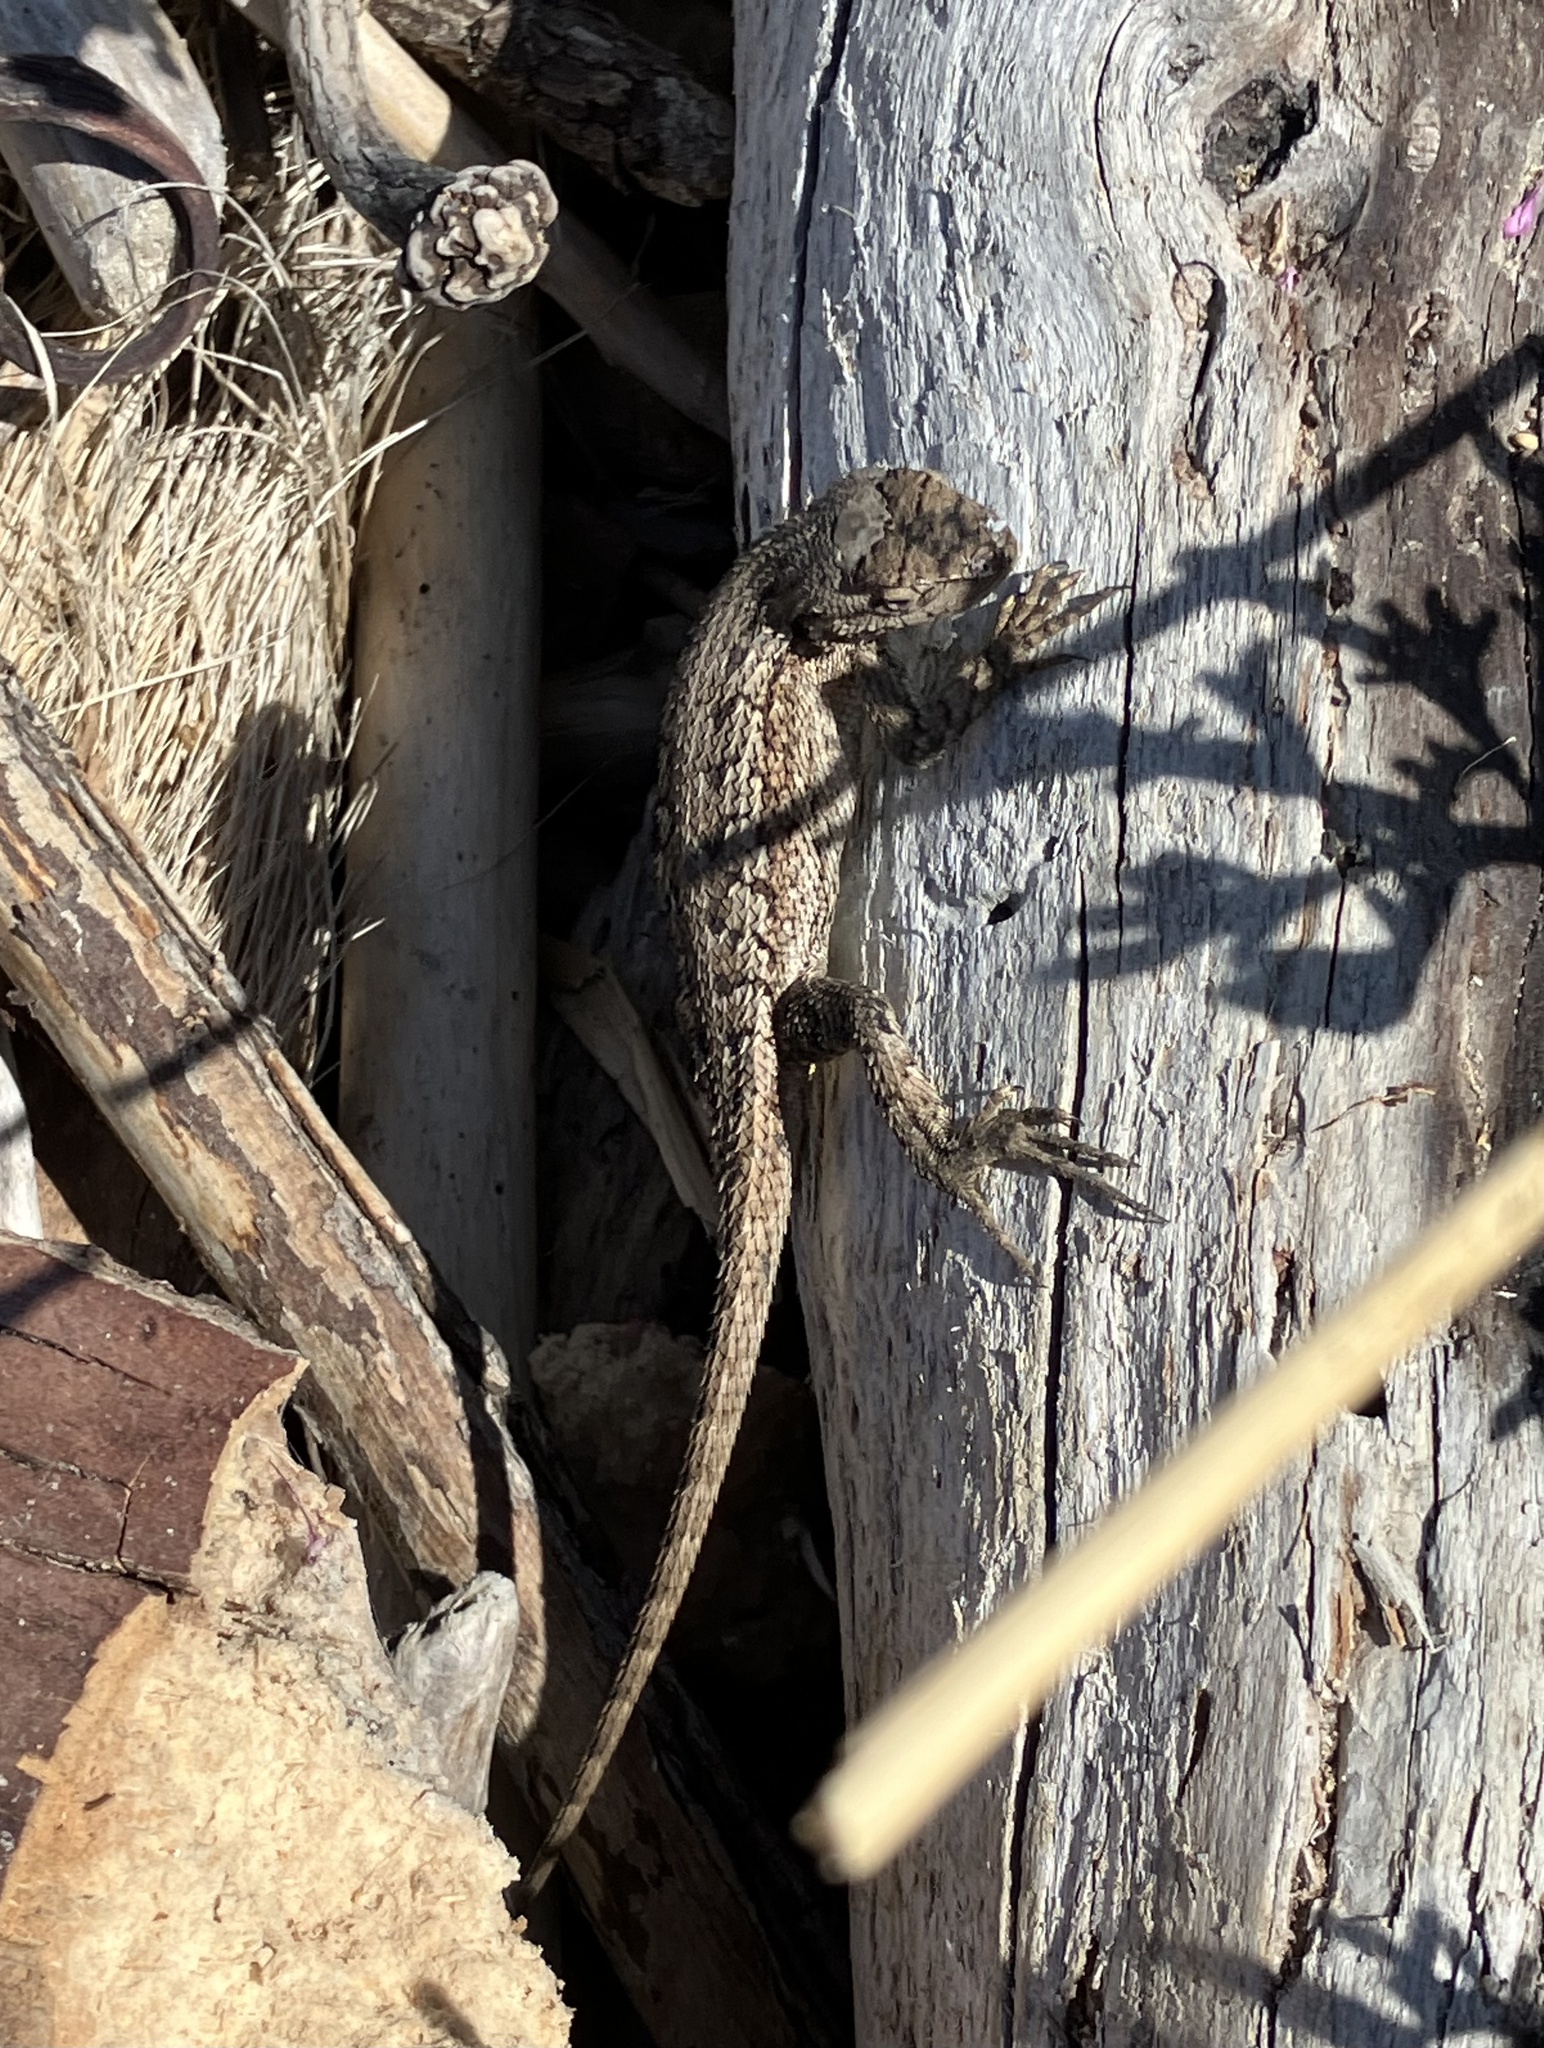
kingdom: Animalia
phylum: Chordata
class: Squamata
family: Phrynosomatidae
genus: Sceloporus
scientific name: Sceloporus occidentalis
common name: Western fence lizard
